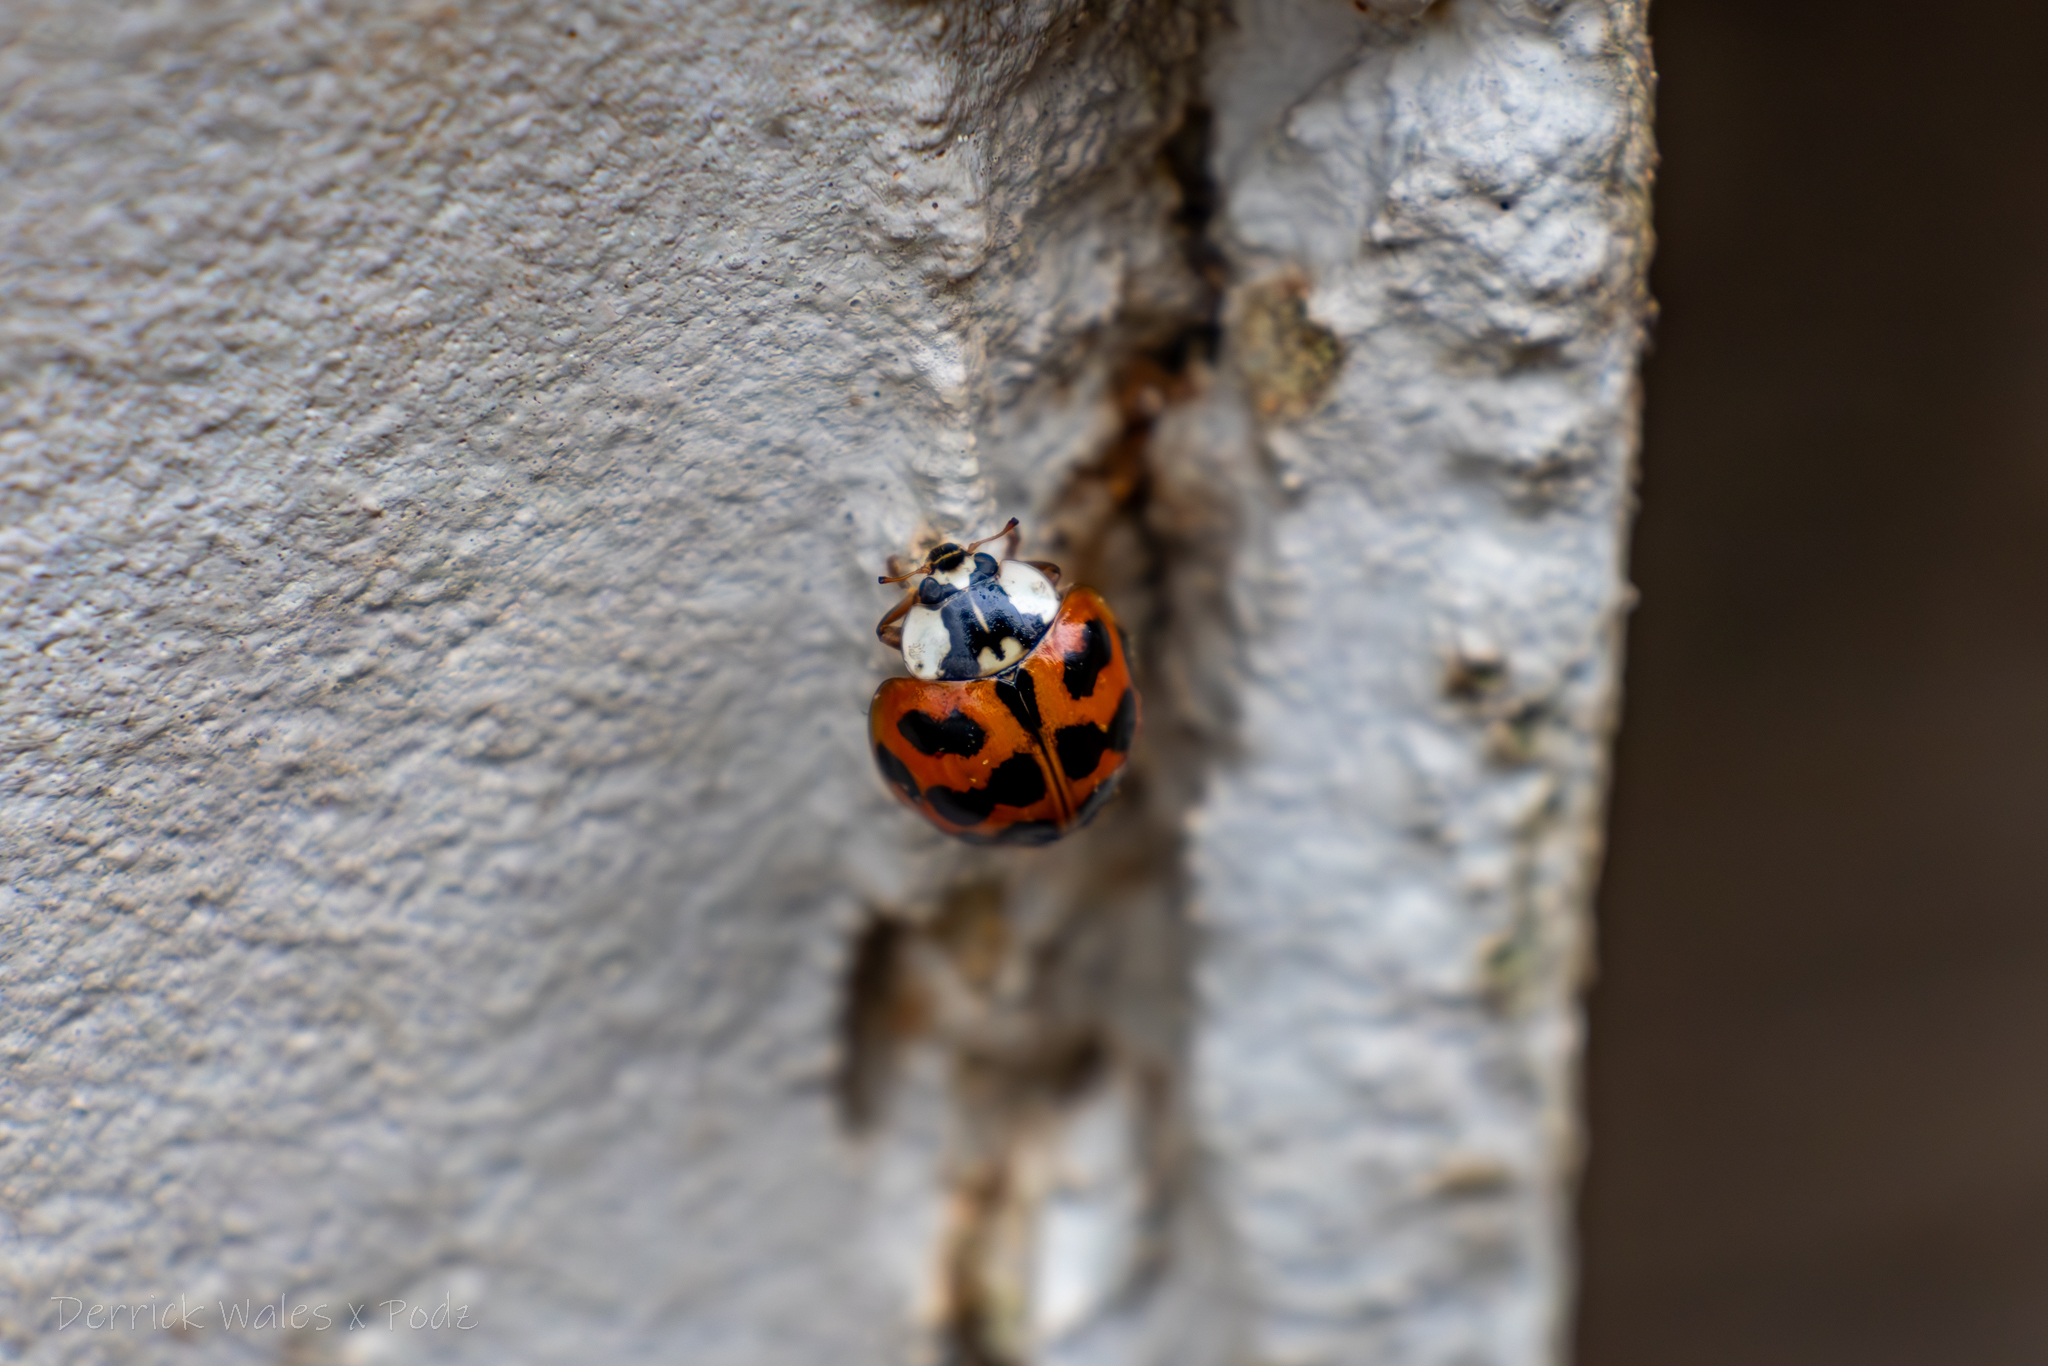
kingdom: Animalia
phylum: Arthropoda
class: Insecta
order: Coleoptera
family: Coccinellidae
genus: Harmonia
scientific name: Harmonia axyridis
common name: Harlequin ladybird
